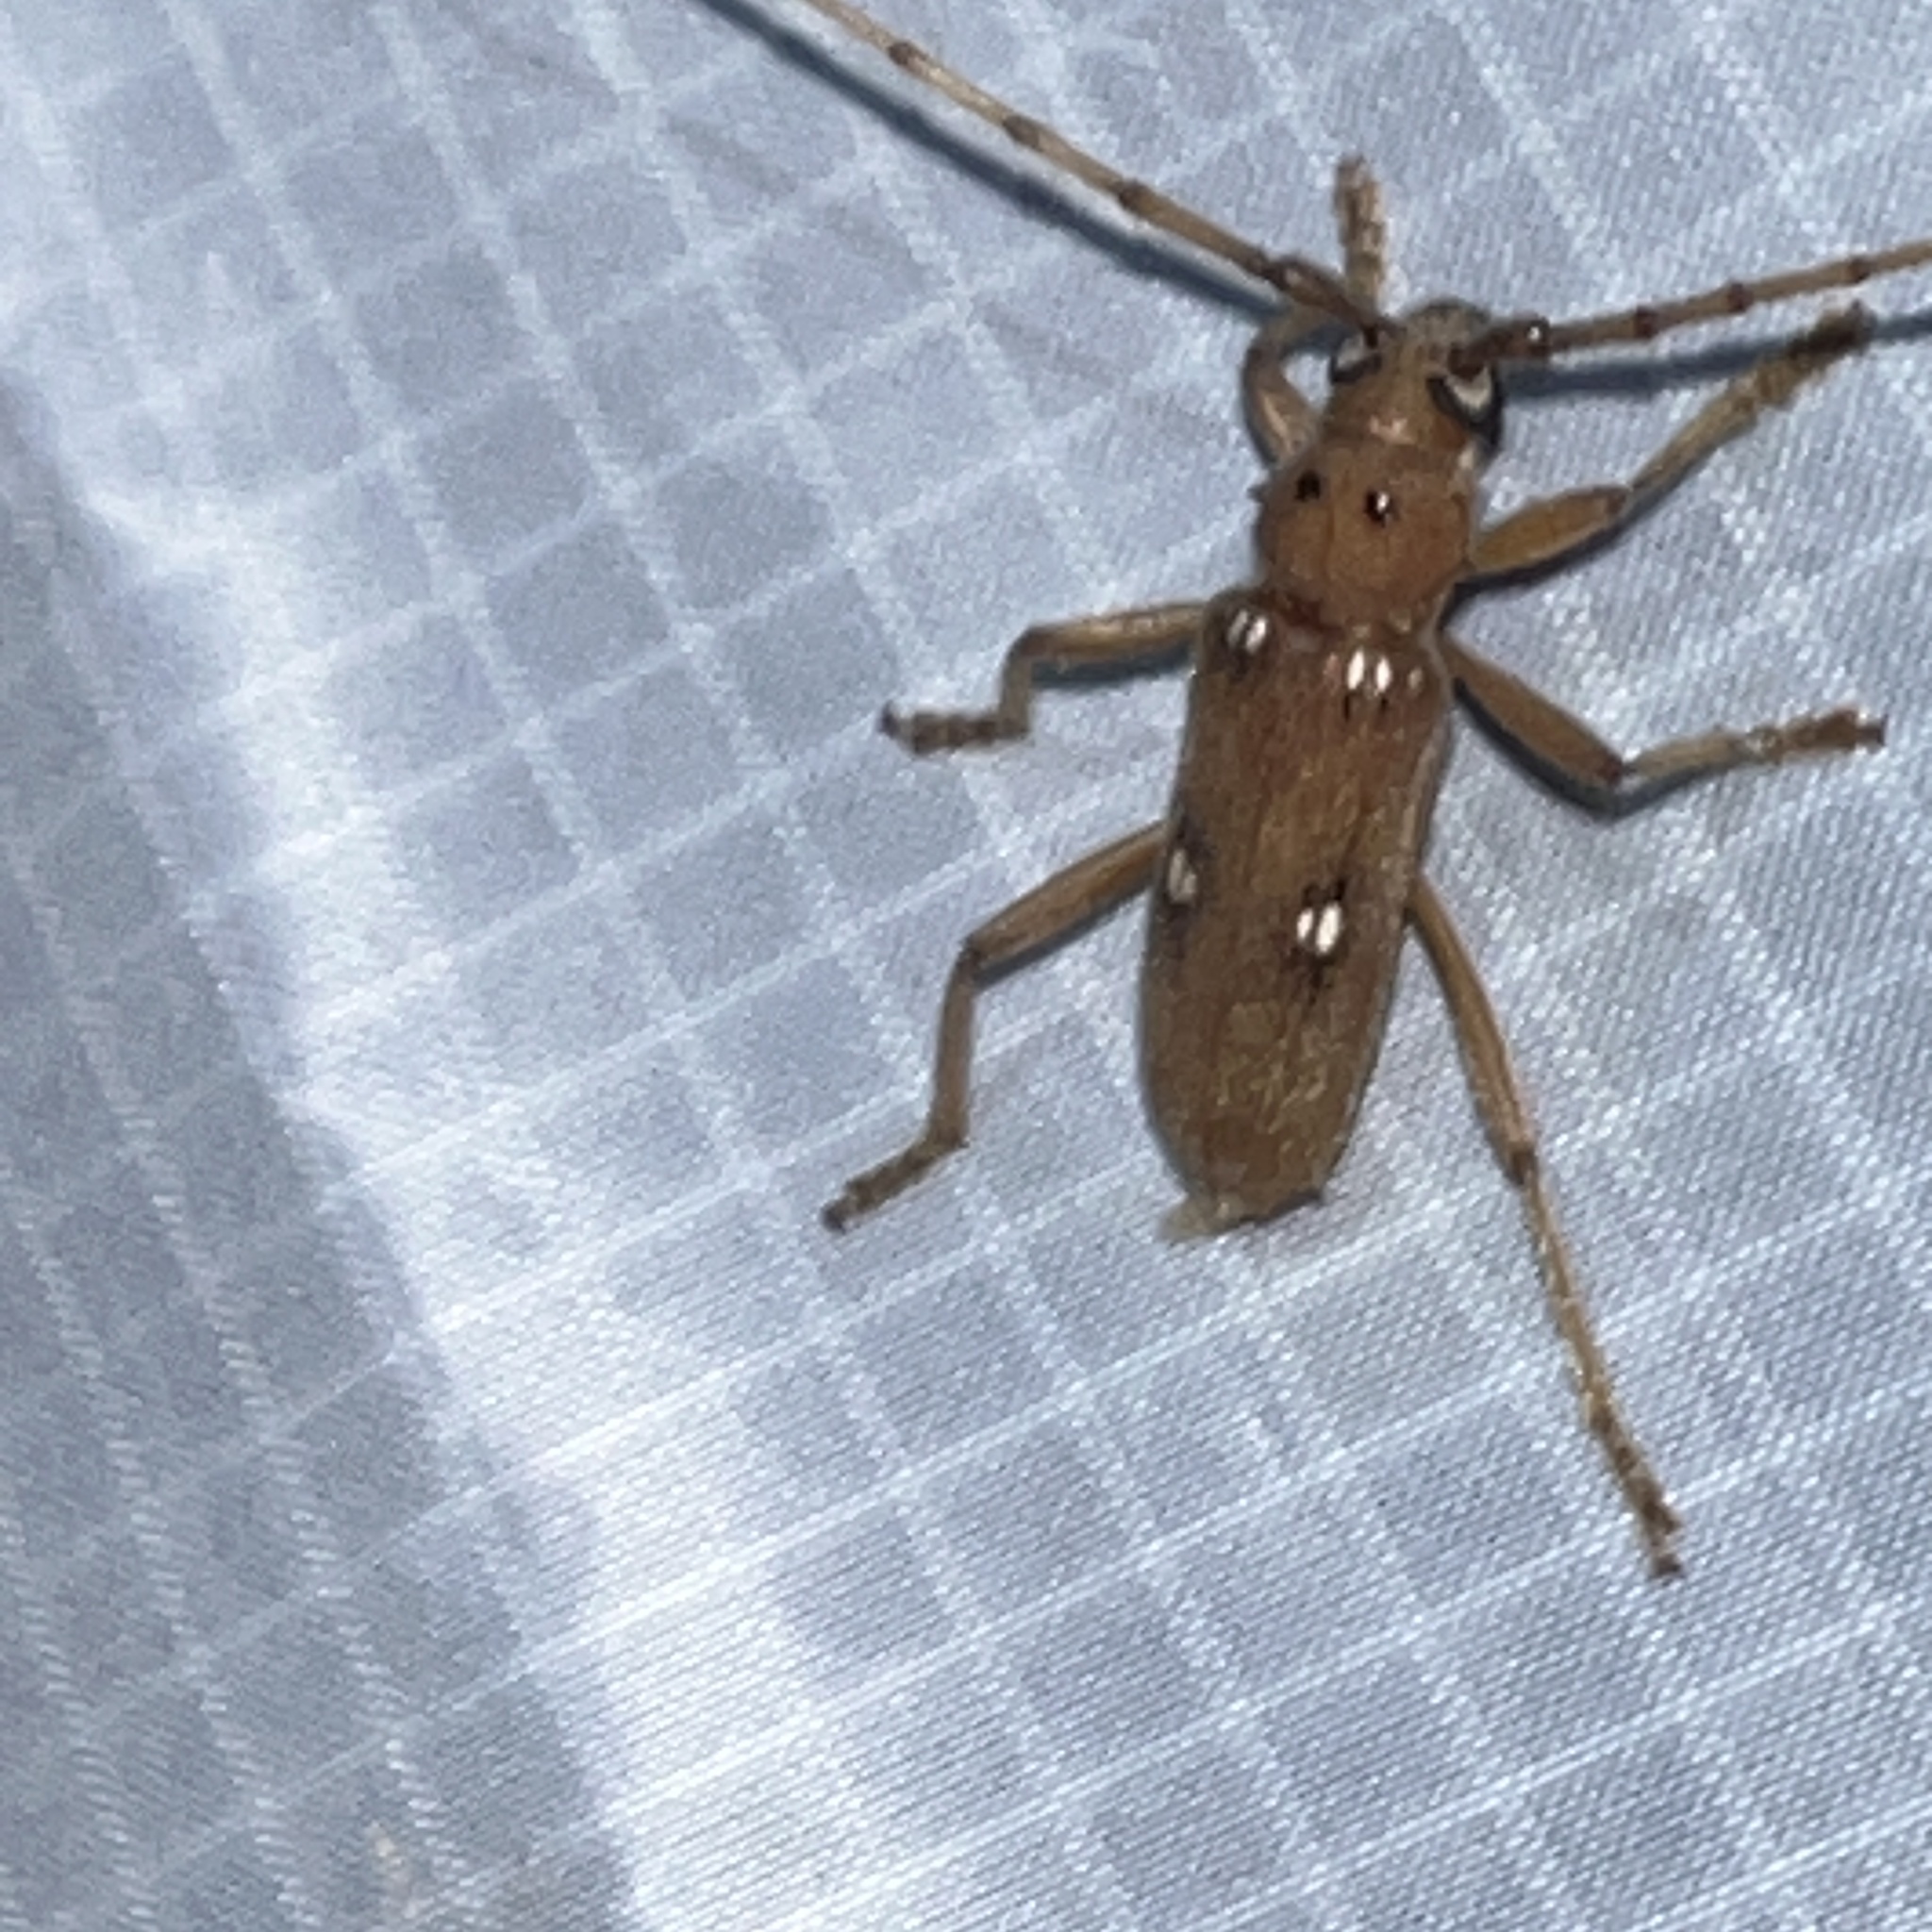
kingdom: Animalia
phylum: Arthropoda
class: Insecta
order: Coleoptera
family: Cerambycidae
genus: Eburia
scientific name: Eburia haldemani
